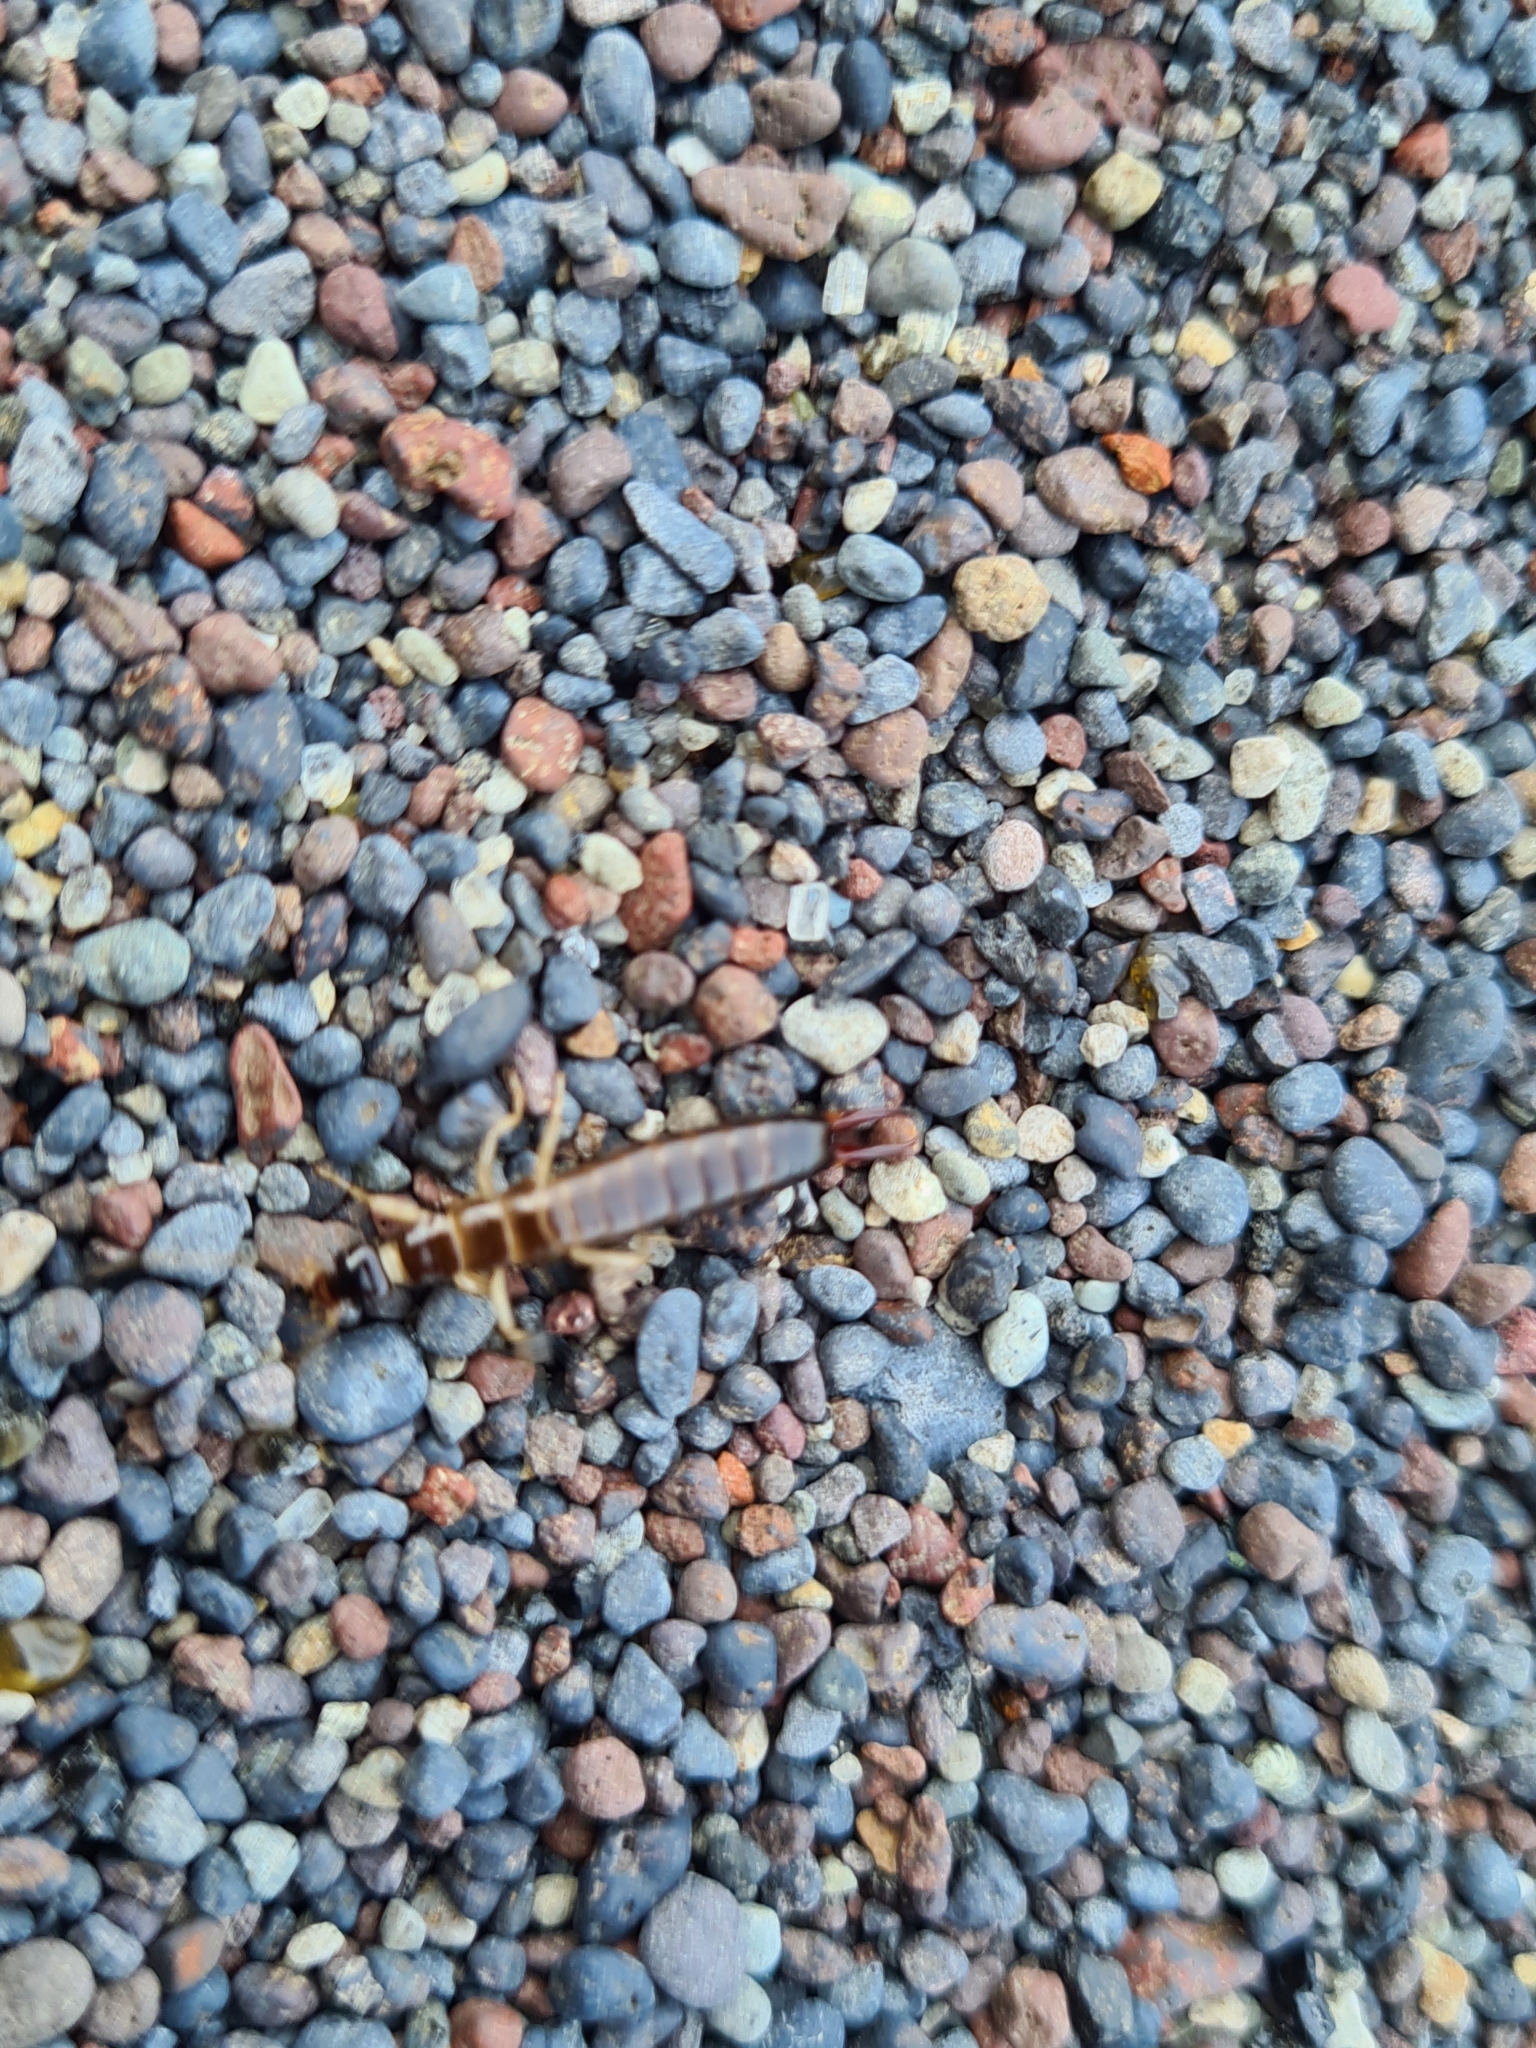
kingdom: Animalia
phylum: Arthropoda
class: Insecta
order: Dermaptera
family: Anisolabididae
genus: Anisolabis
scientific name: Anisolabis maritima
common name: Maritime earwig
